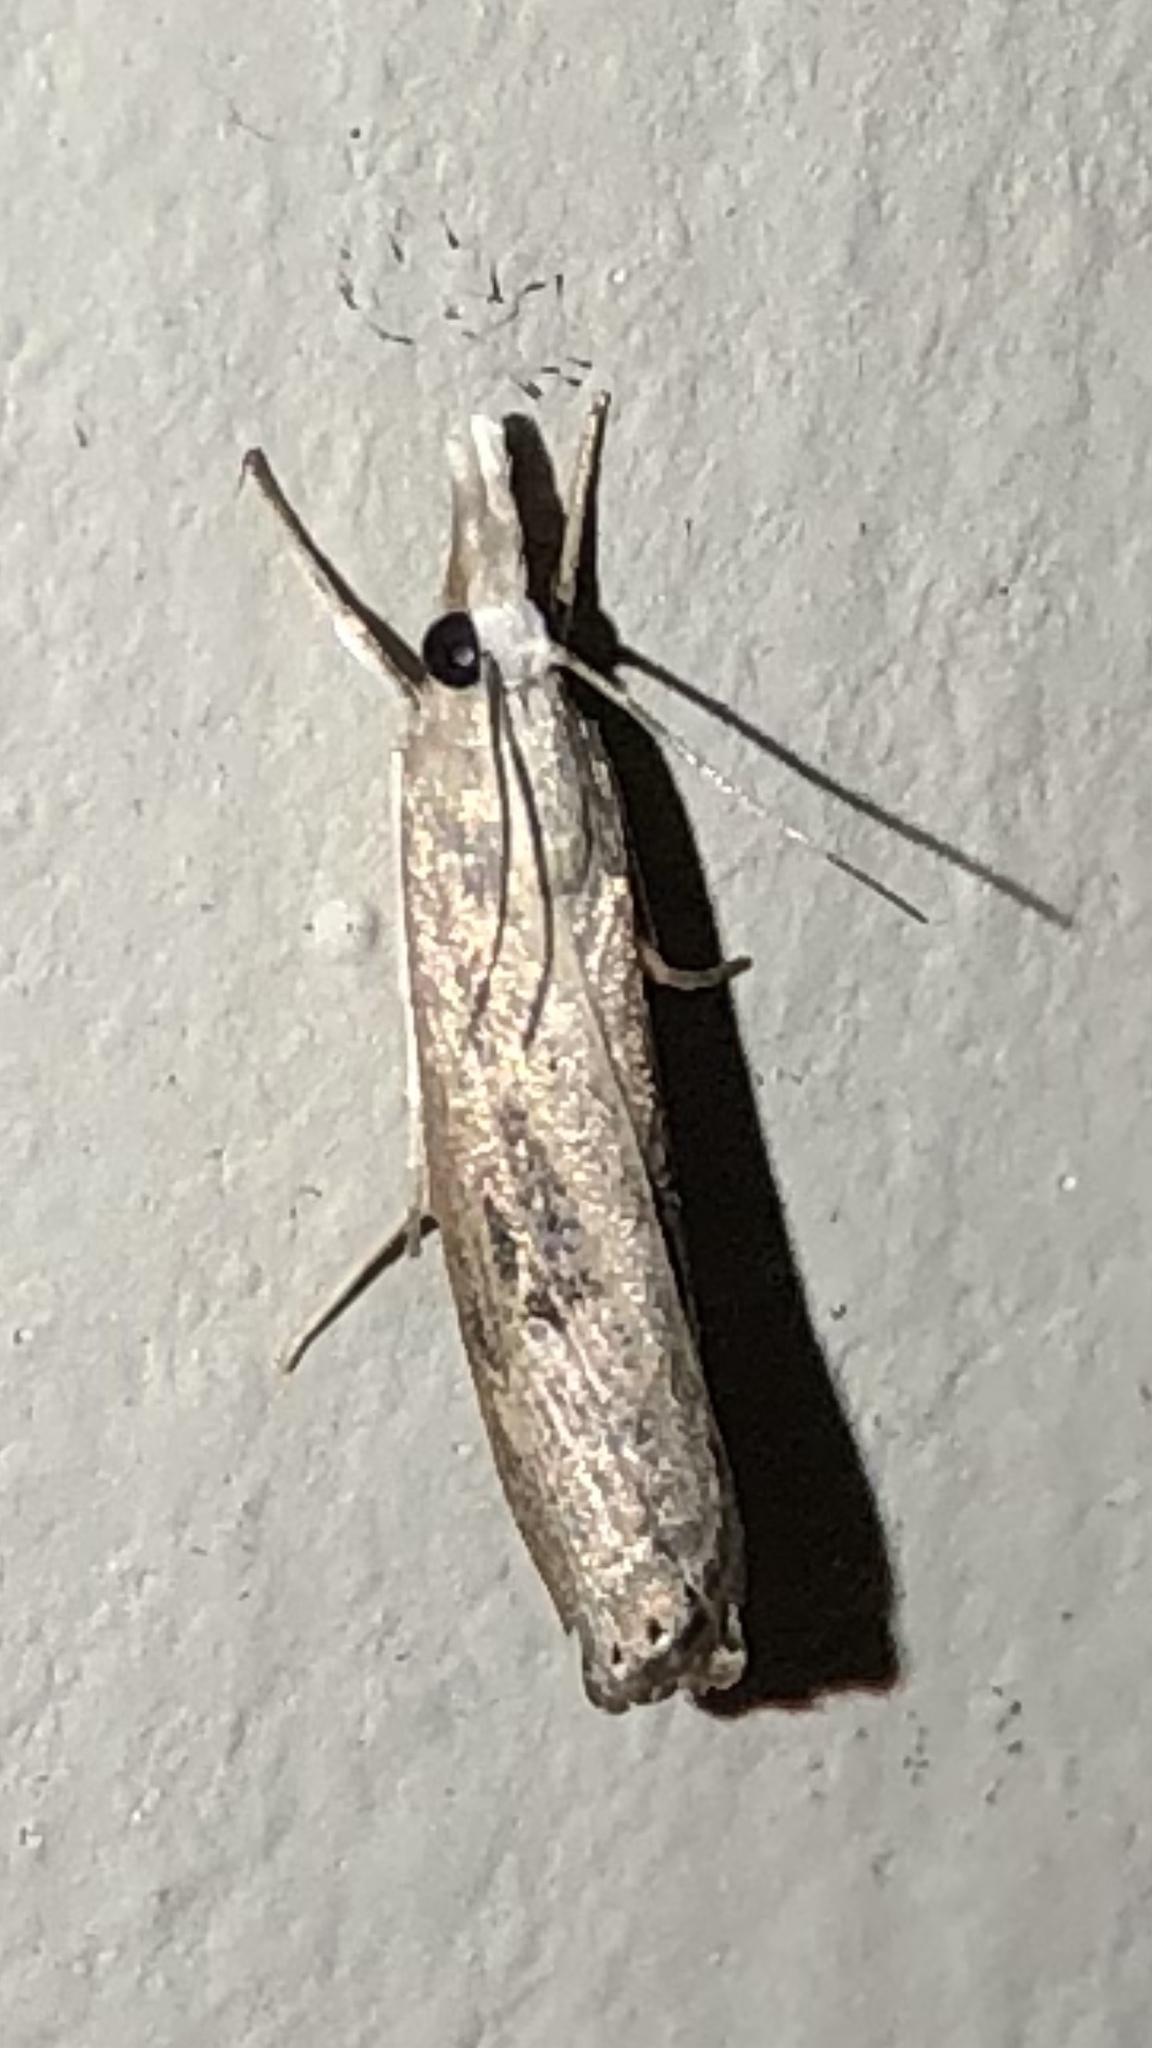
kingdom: Animalia
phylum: Arthropoda
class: Insecta
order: Lepidoptera
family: Crambidae
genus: Parapediasia
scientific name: Parapediasia teterellus
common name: Bluegrass webworm moth
